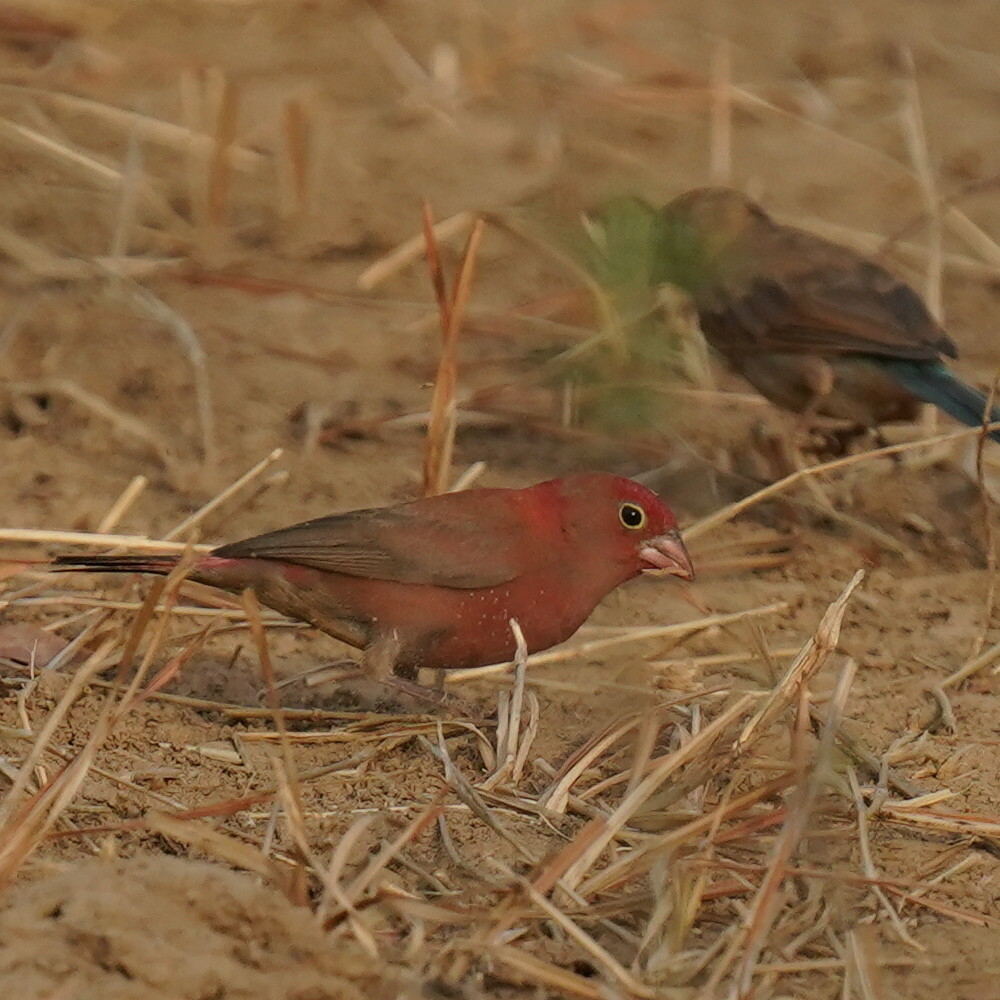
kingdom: Animalia
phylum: Chordata
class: Aves
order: Passeriformes
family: Estrildidae
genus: Lagonosticta
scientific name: Lagonosticta senegala
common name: Red-billed firefinch
